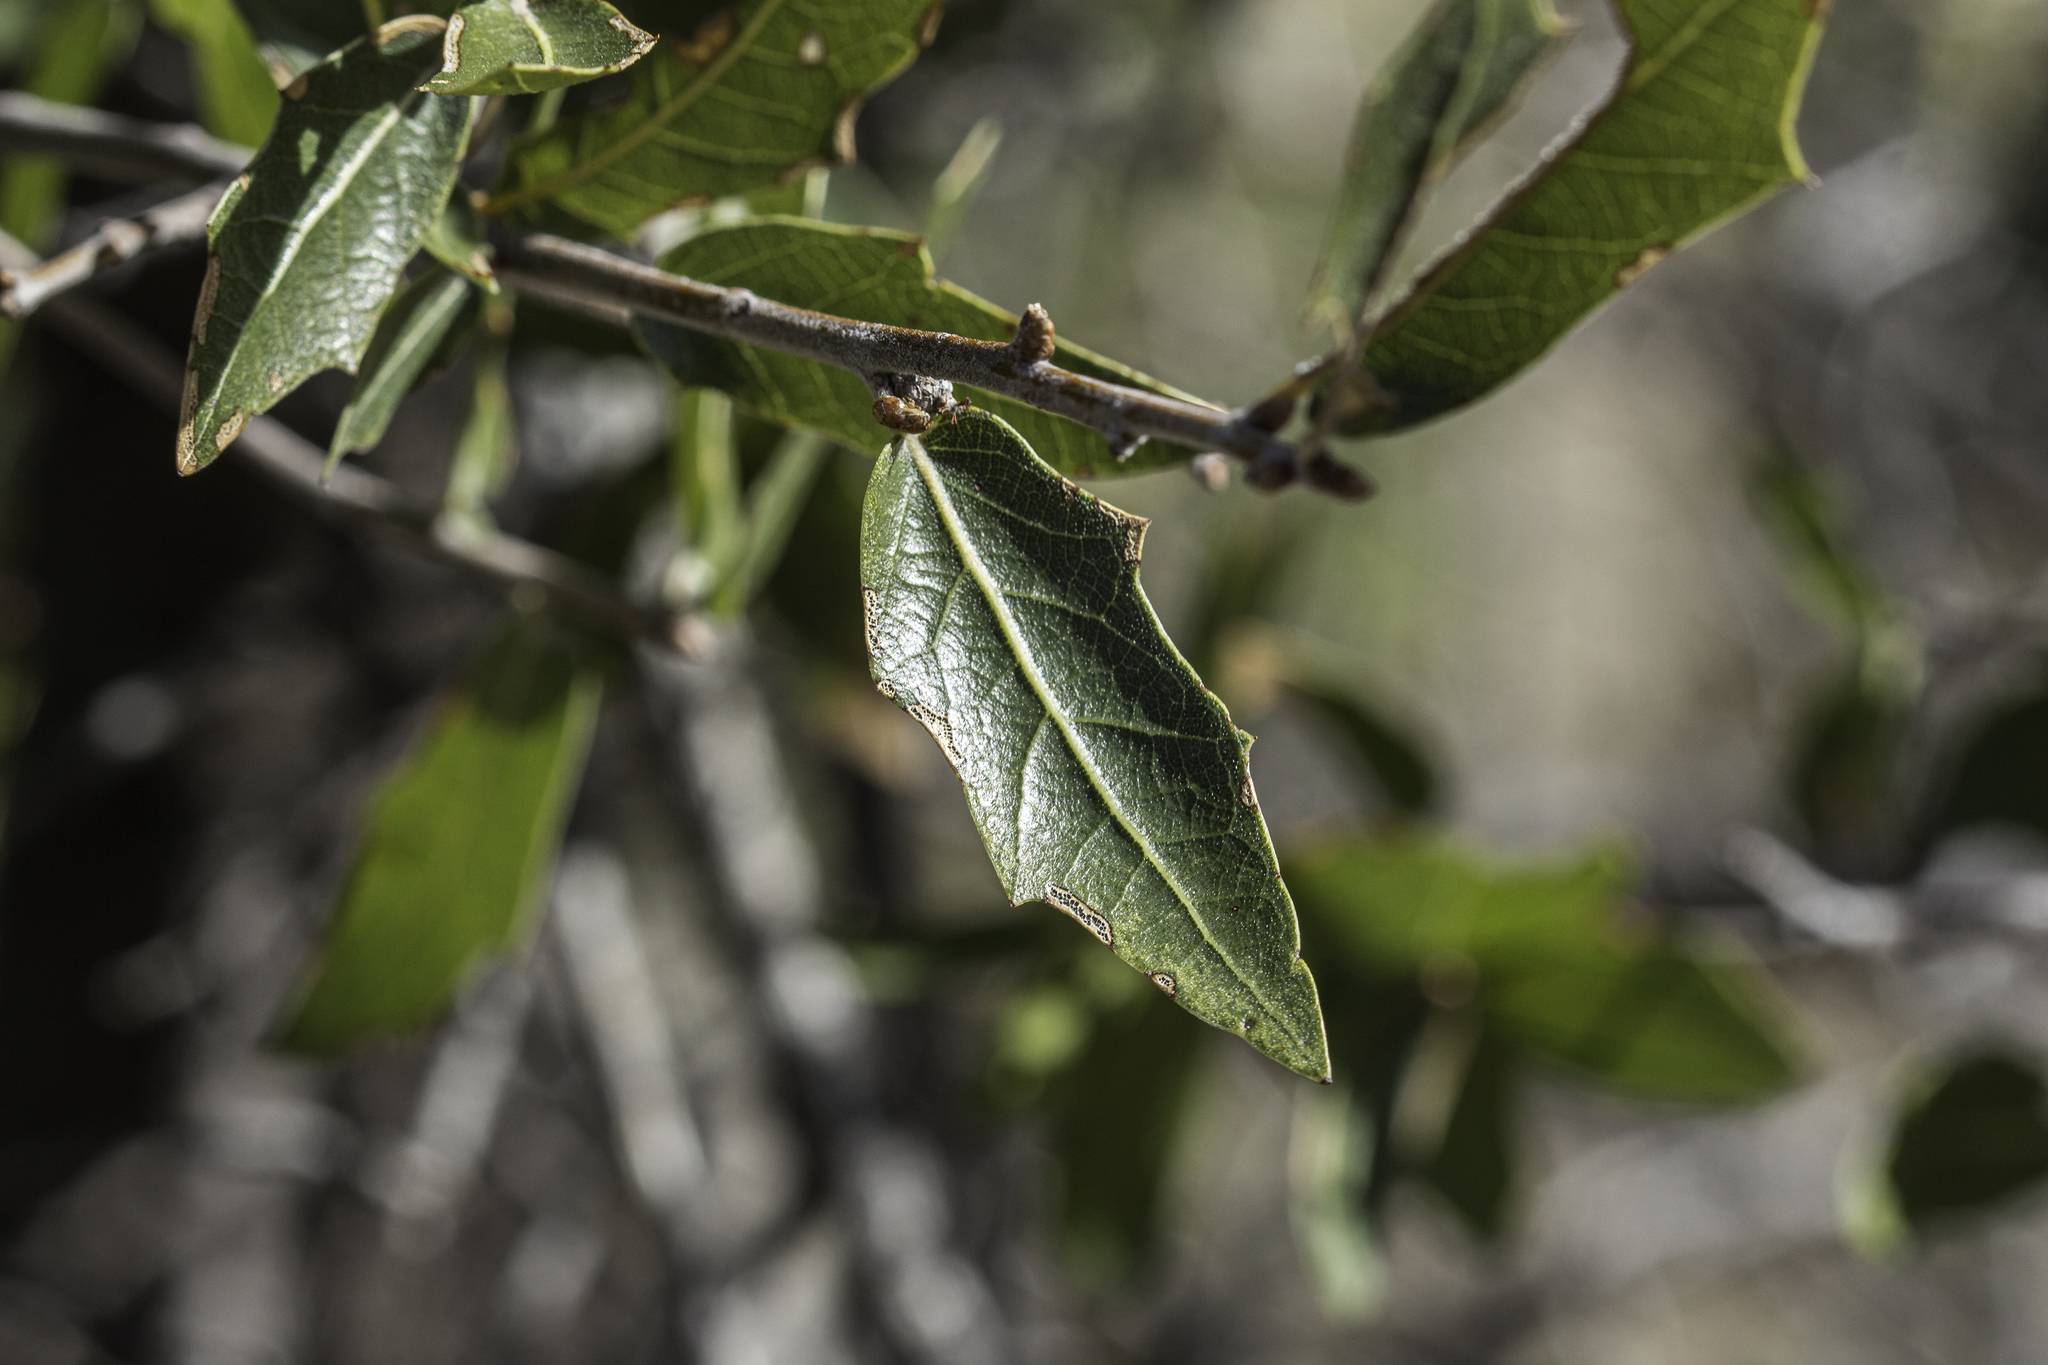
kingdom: Plantae
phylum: Tracheophyta
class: Magnoliopsida
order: Fagales
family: Fagaceae
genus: Quercus
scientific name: Quercus emoryi
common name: Emory oak
